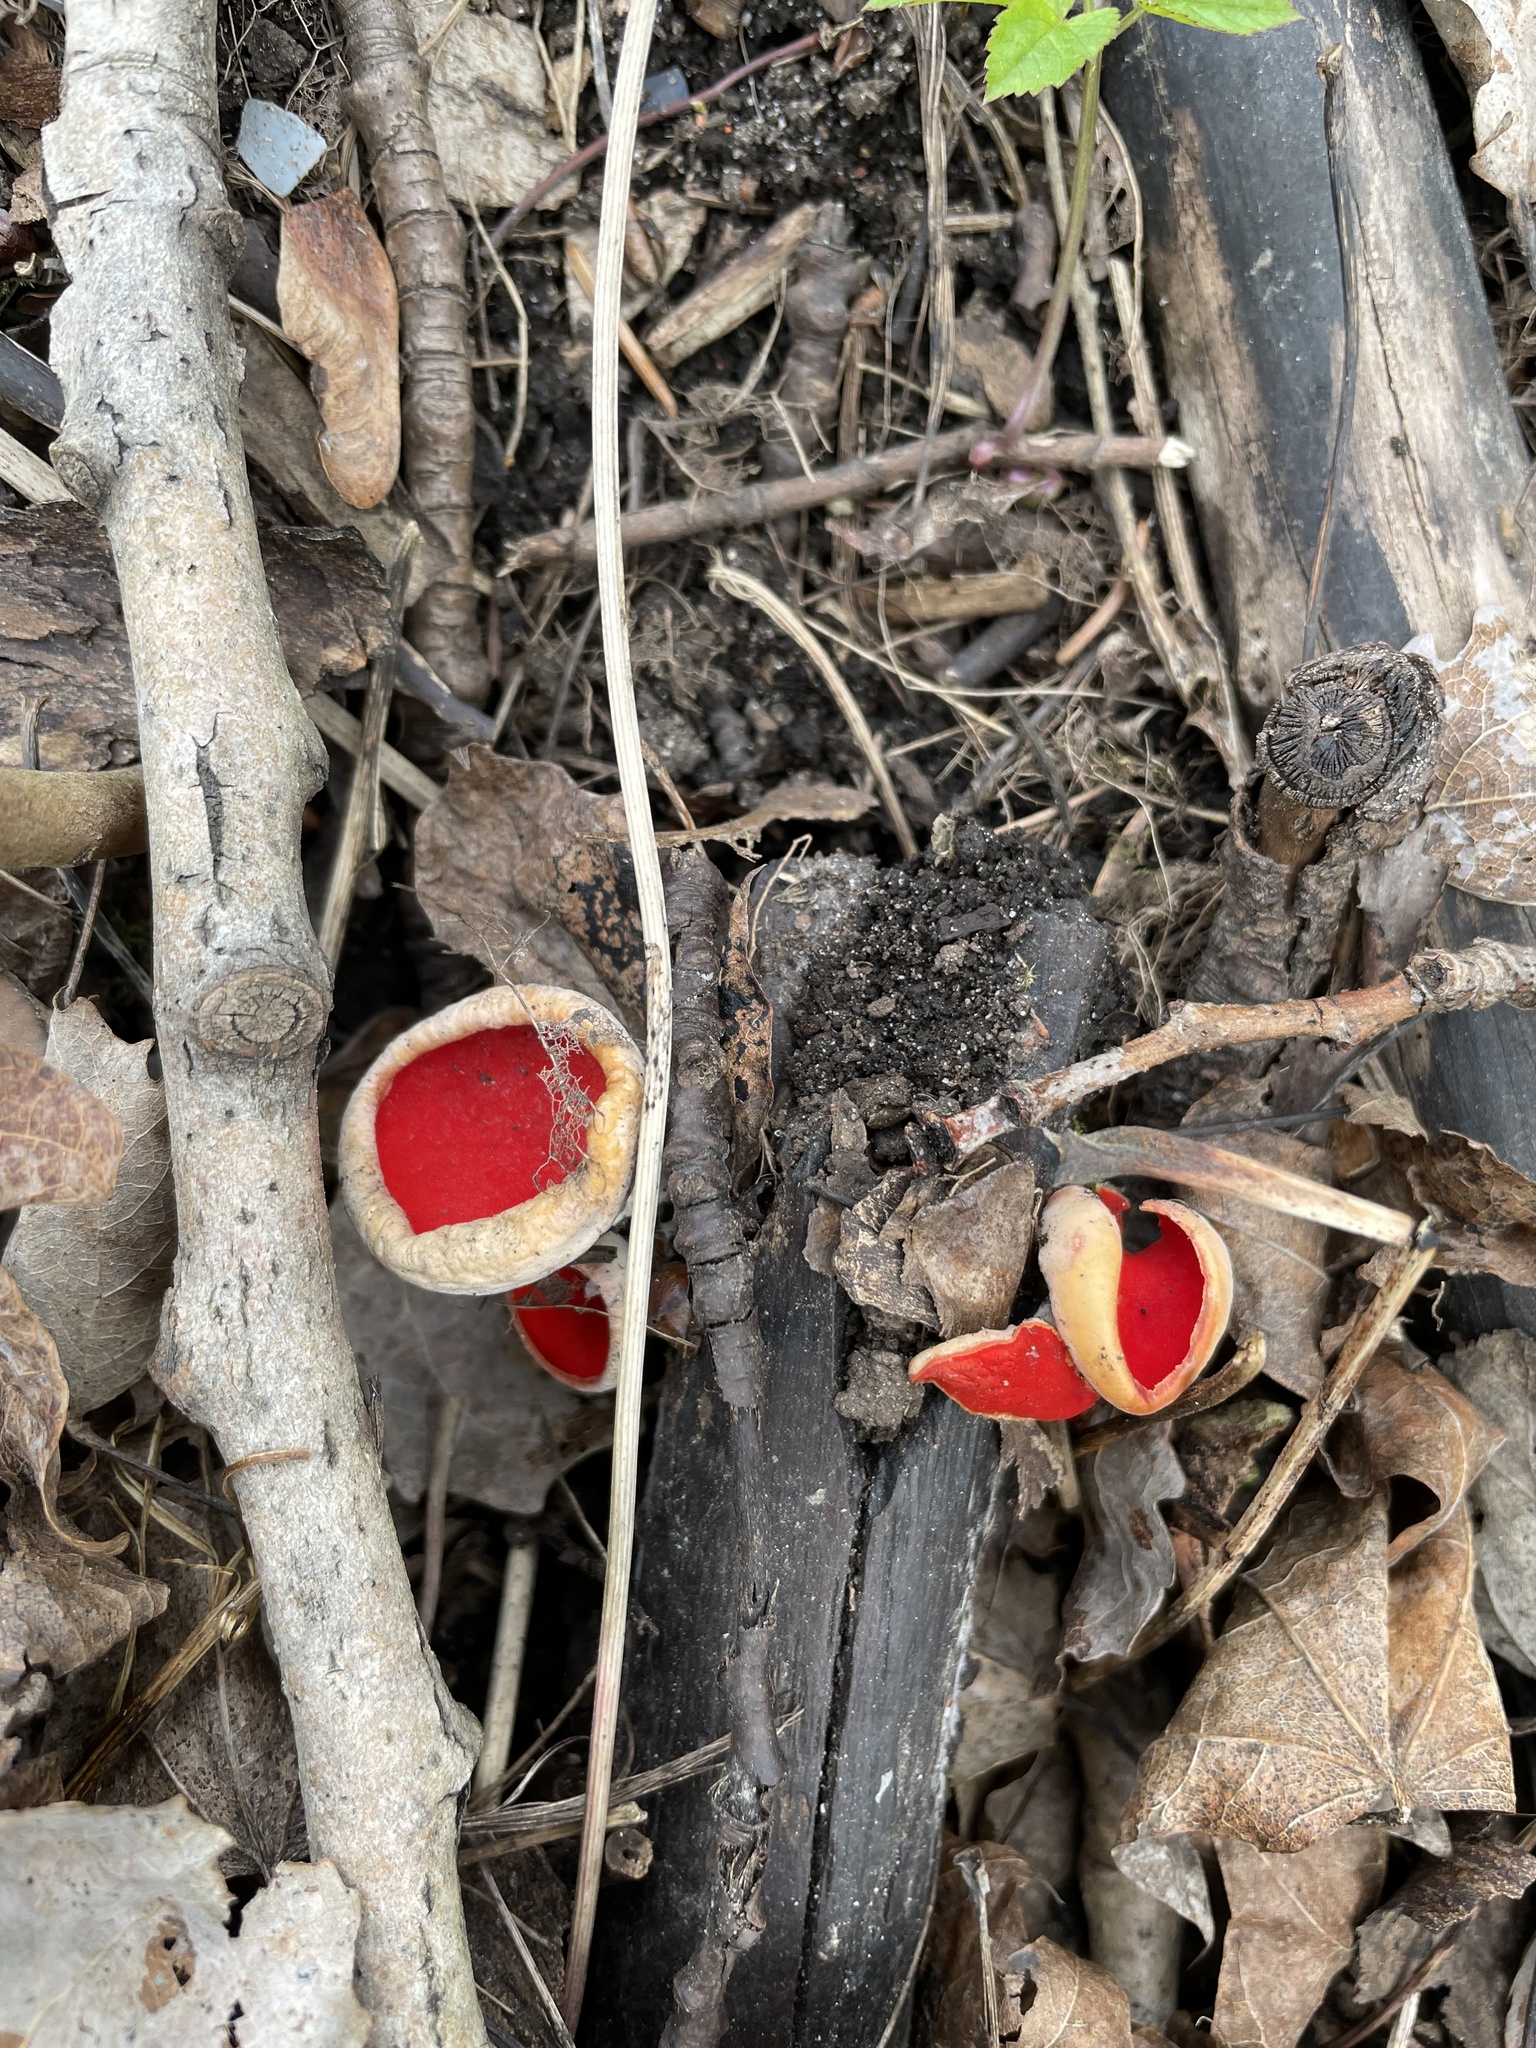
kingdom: Fungi
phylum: Ascomycota
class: Pezizomycetes
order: Pezizales
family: Sarcoscyphaceae
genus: Sarcoscypha
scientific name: Sarcoscypha austriaca
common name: Scarlet elfcup
